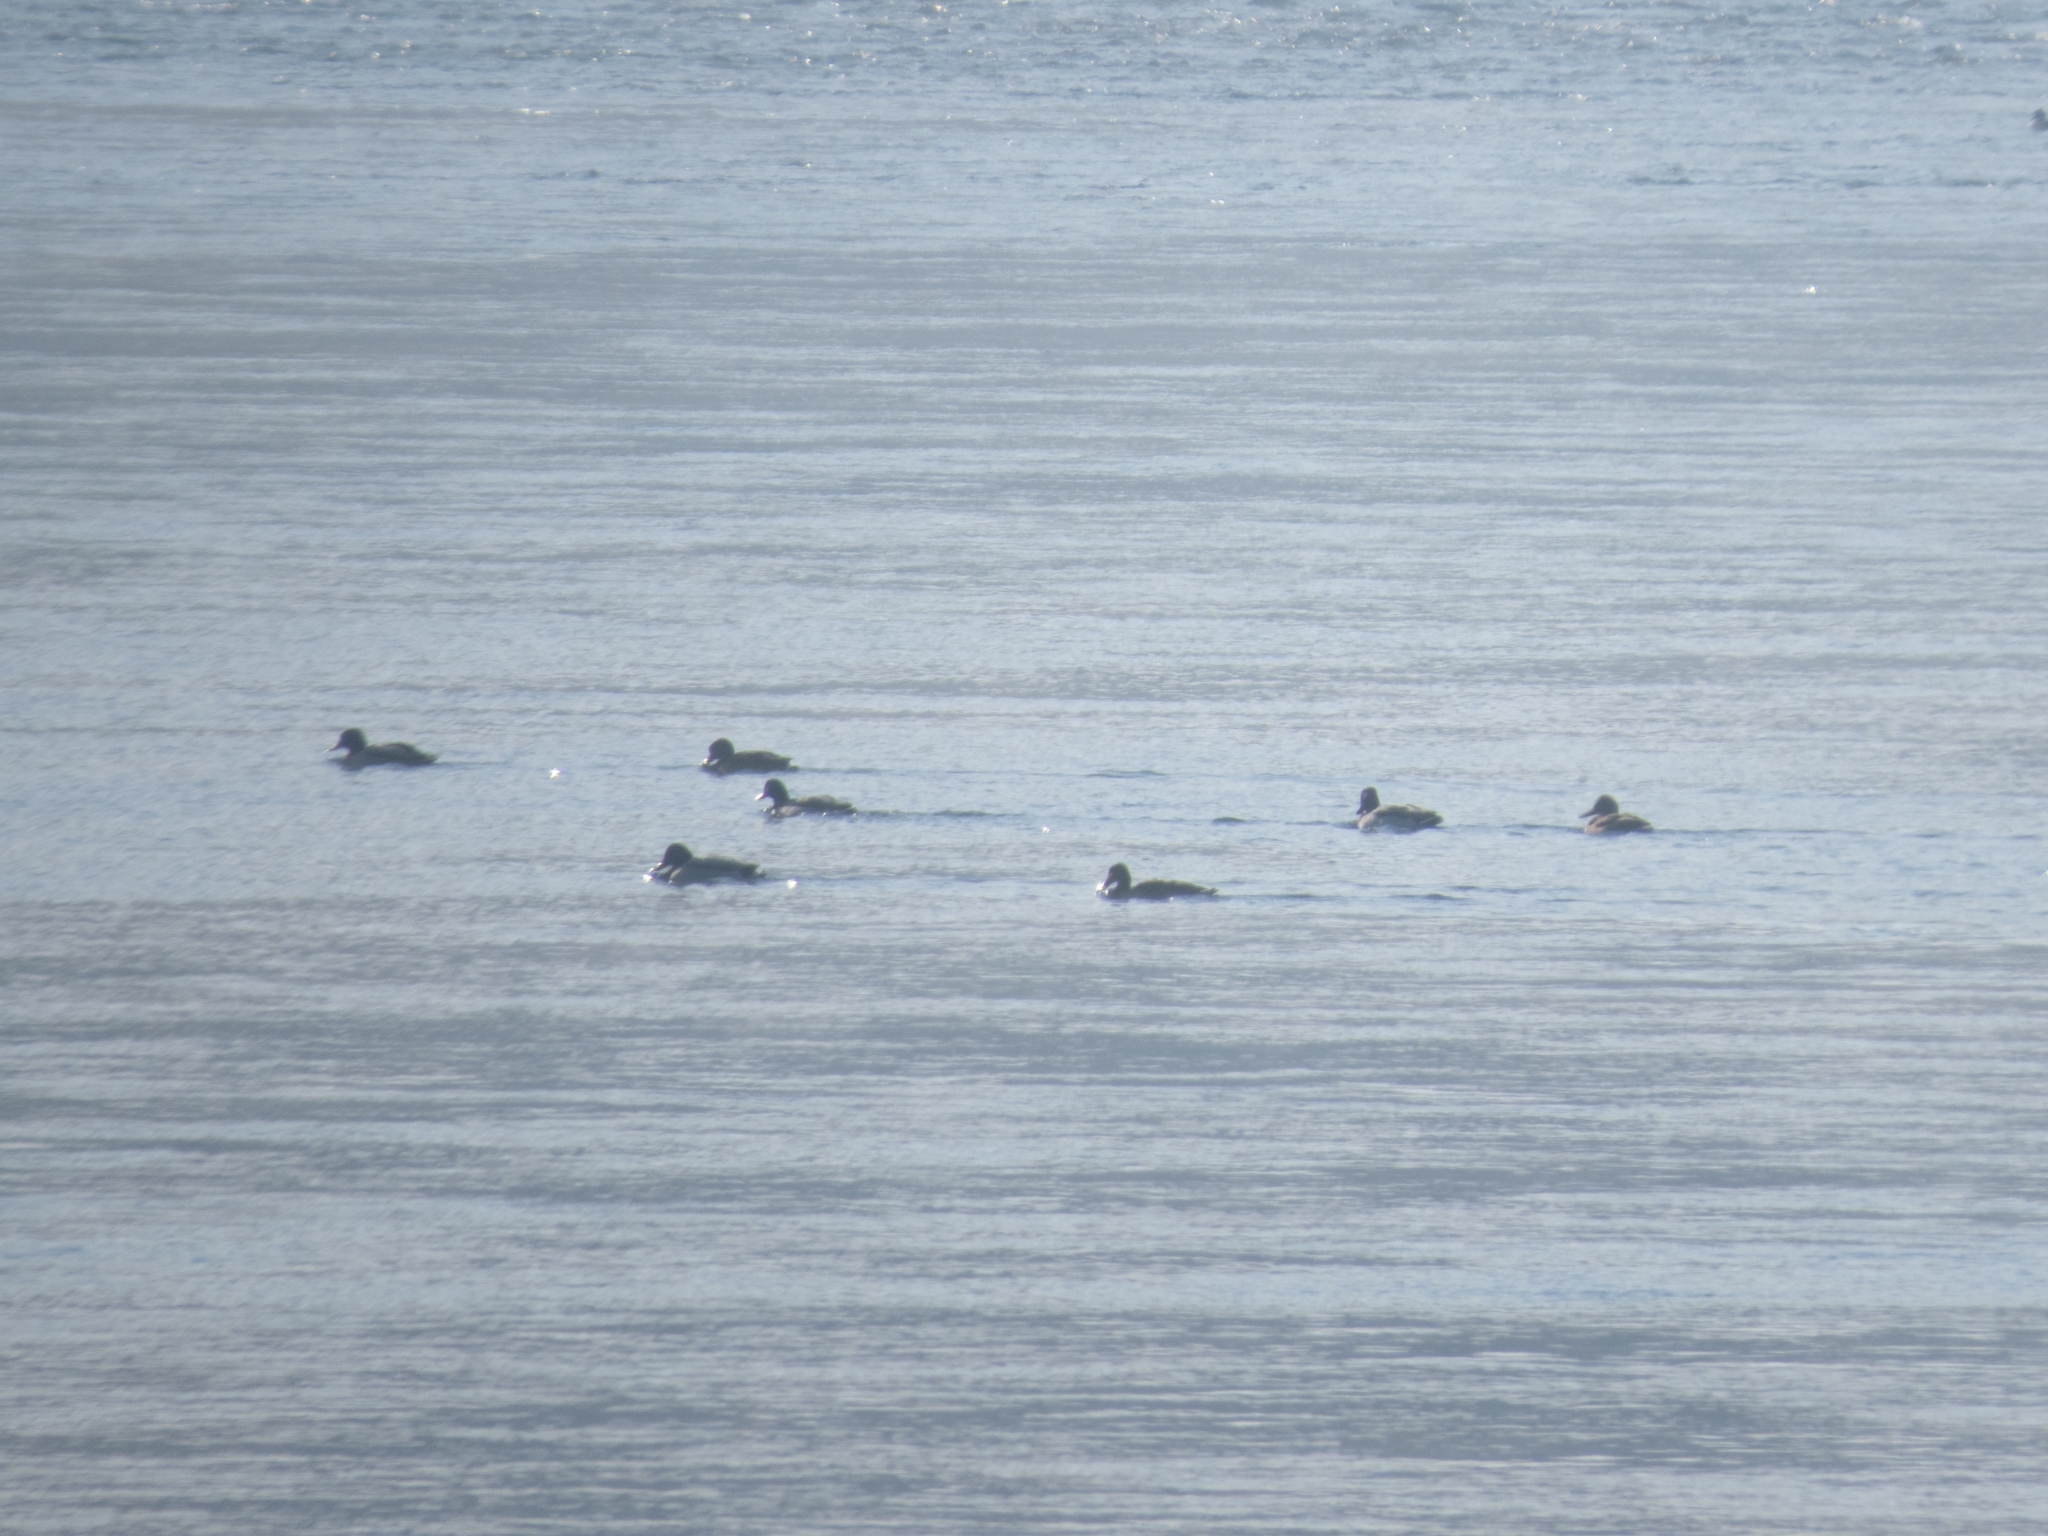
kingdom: Animalia
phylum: Chordata
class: Aves
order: Anseriformes
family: Anatidae
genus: Anas
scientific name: Anas platyrhynchos
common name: Mallard
